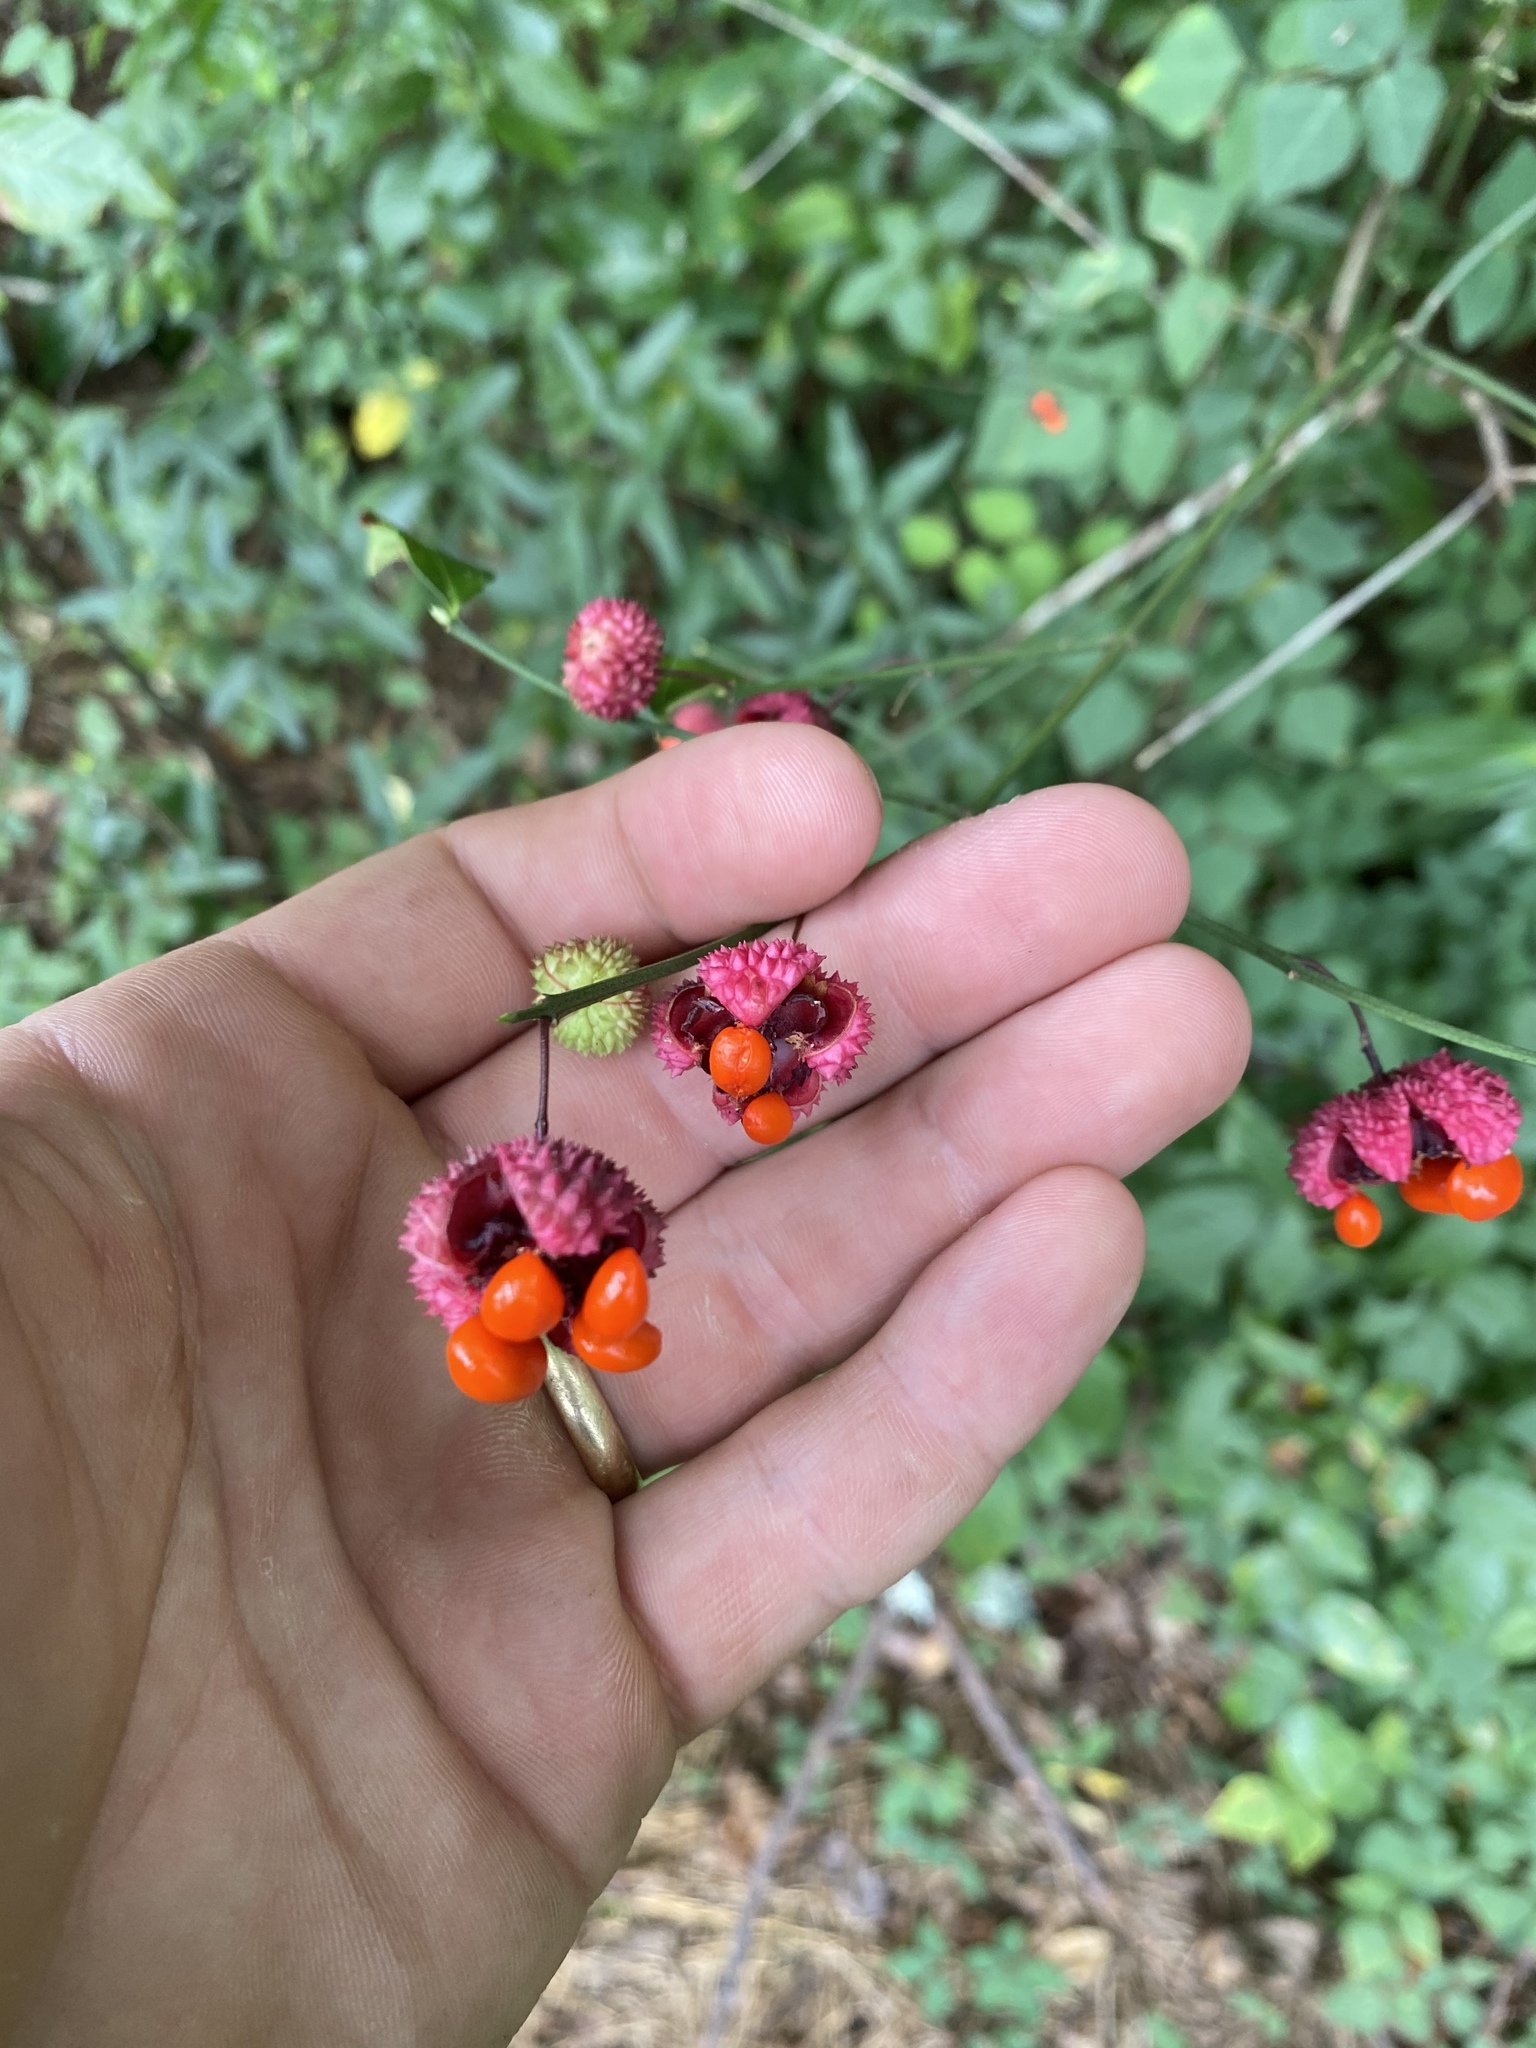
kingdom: Plantae
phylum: Tracheophyta
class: Magnoliopsida
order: Celastrales
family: Celastraceae
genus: Euonymus
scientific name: Euonymus americanus
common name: Bursting-heart
